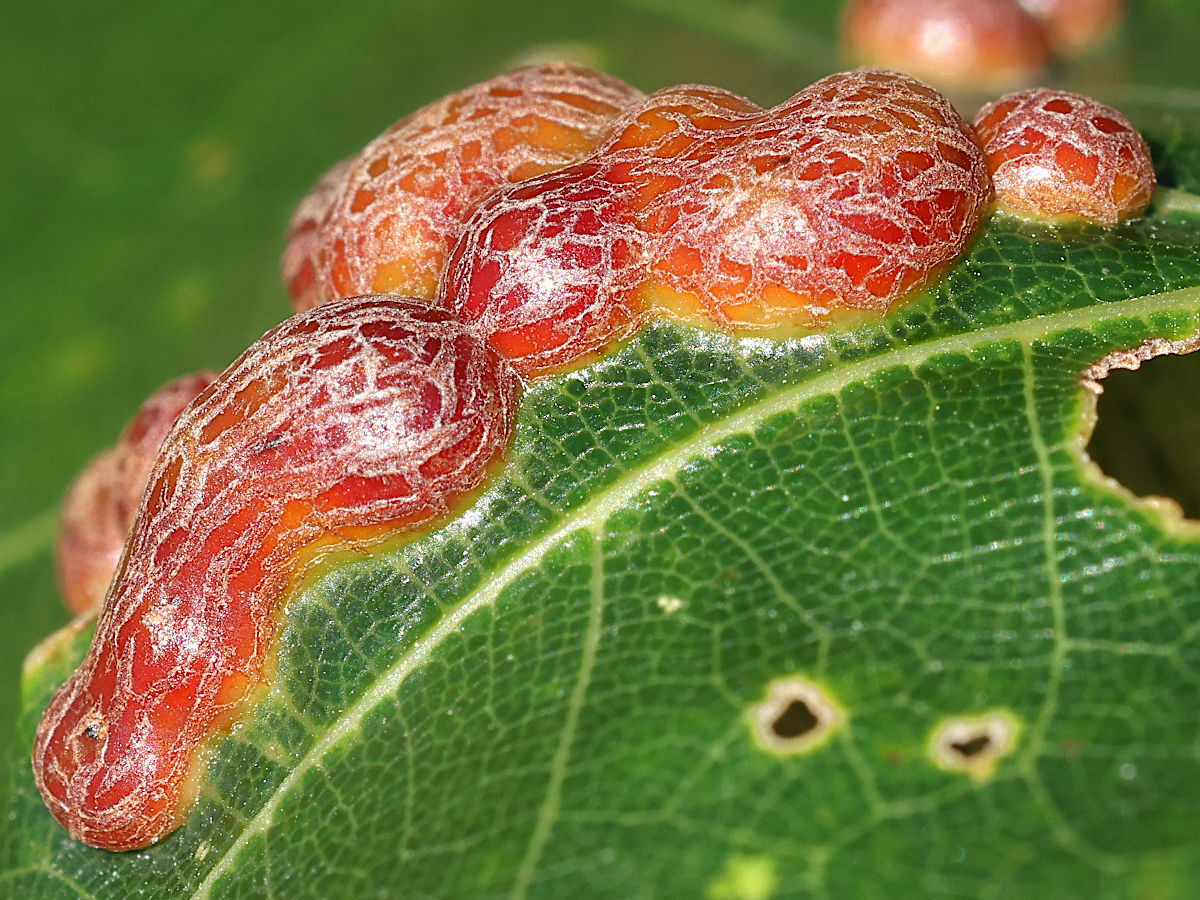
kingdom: Animalia
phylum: Arthropoda
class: Insecta
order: Diptera
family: Cecidomyiidae
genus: Polystepha
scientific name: Polystepha pilulae
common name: Oak leaf gall midge
